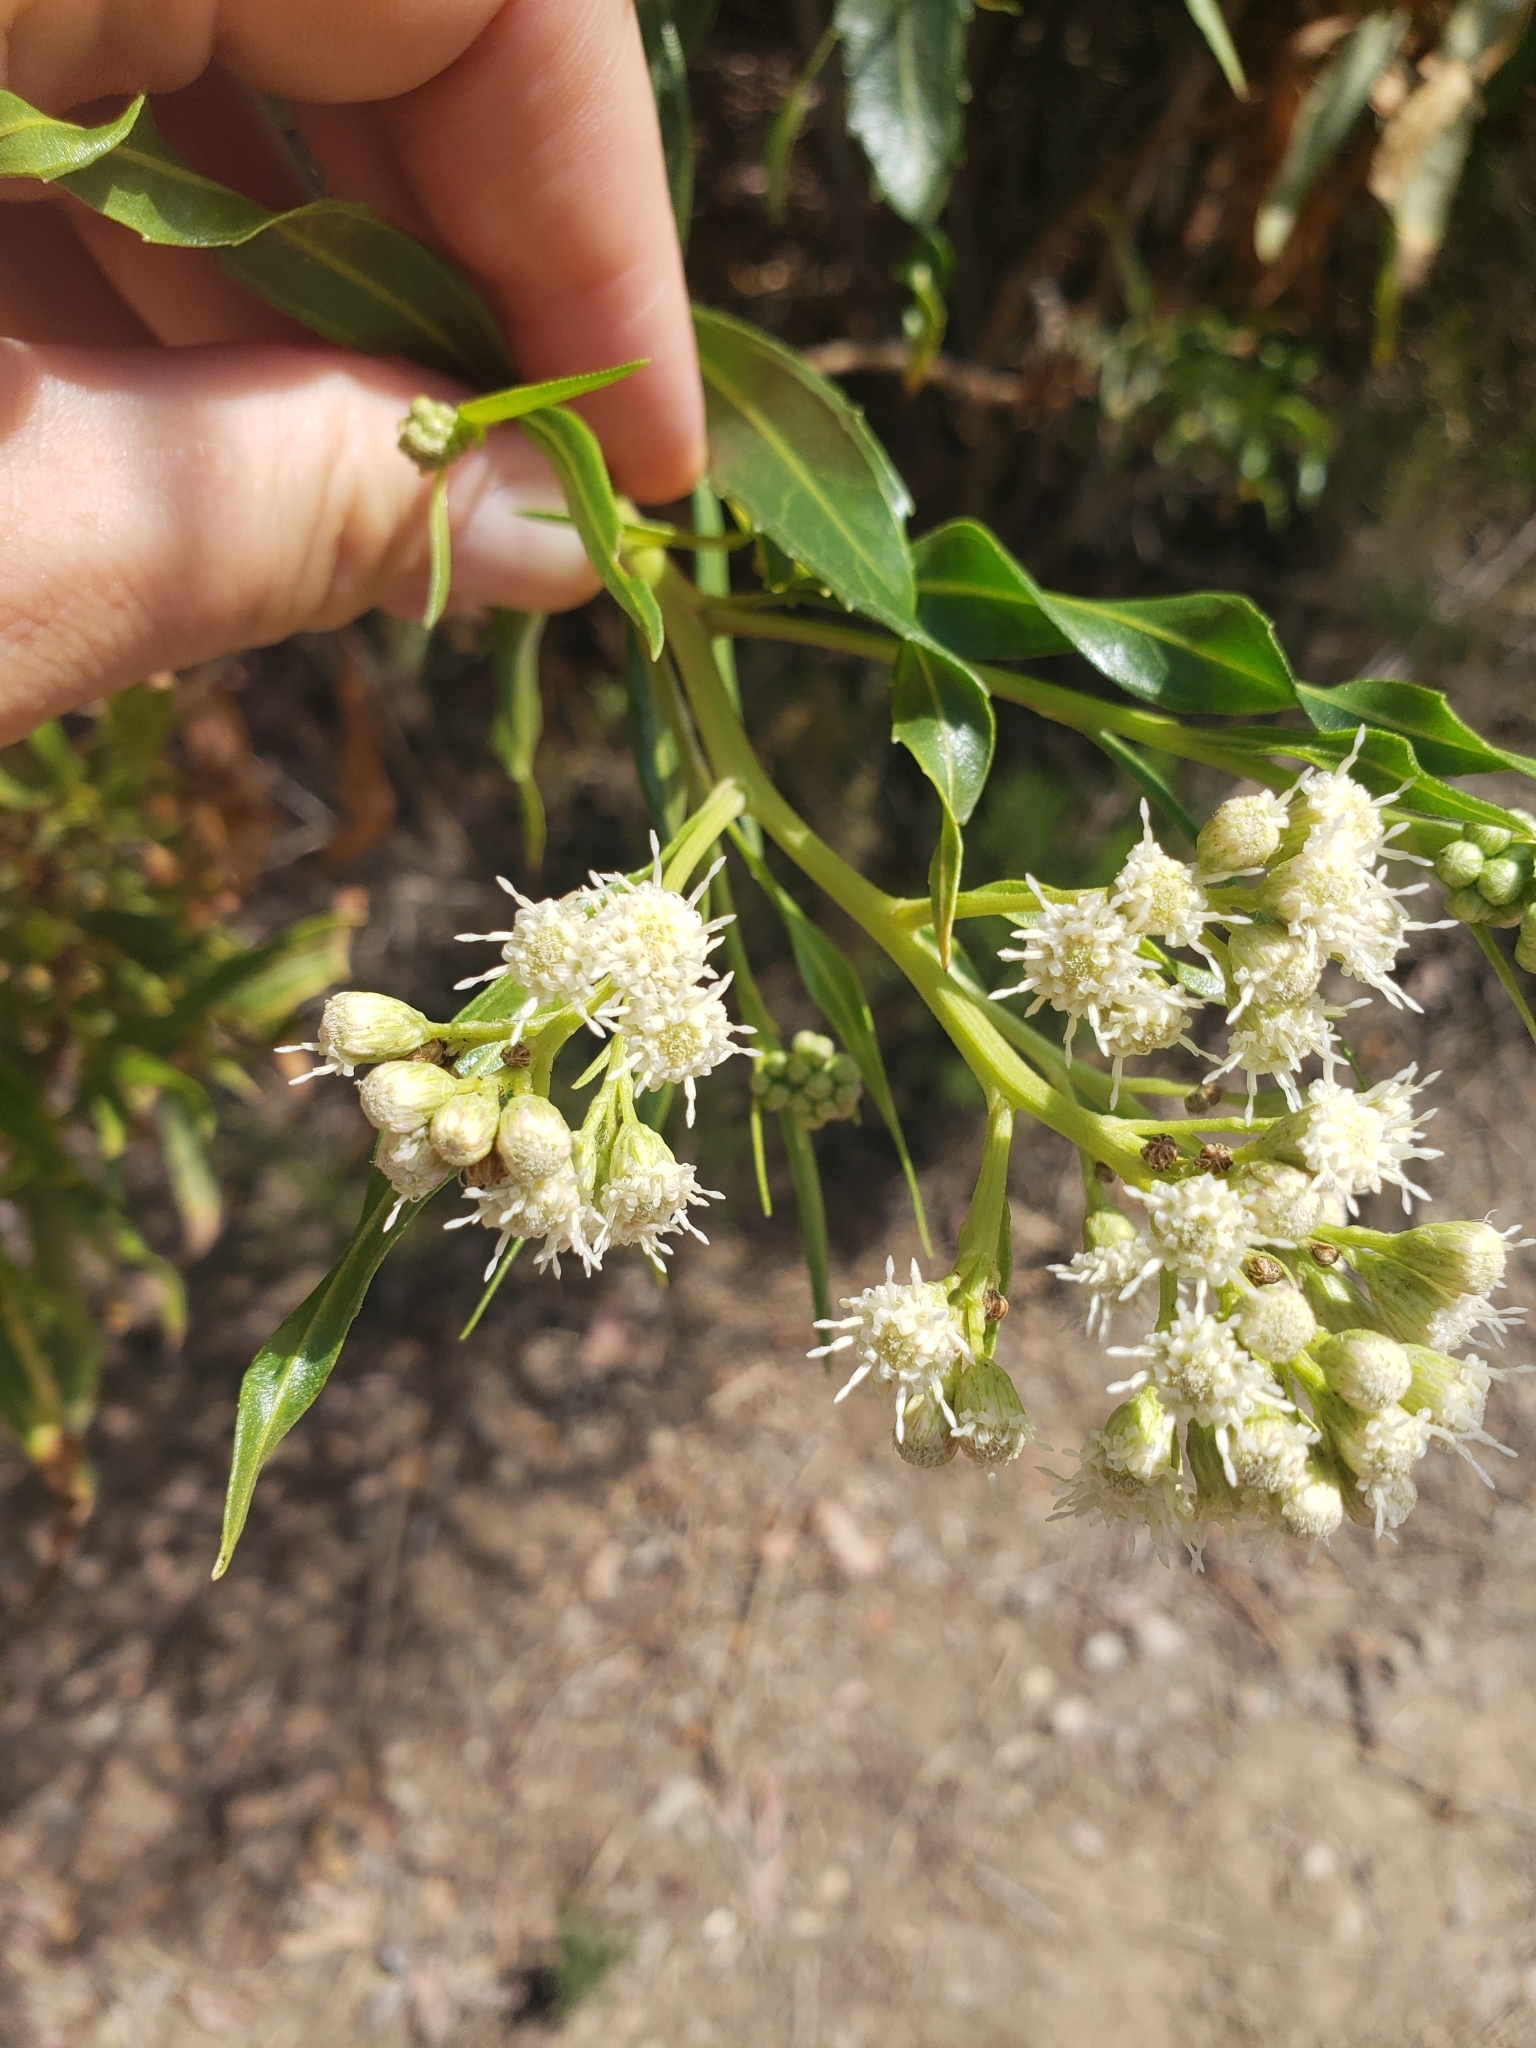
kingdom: Plantae
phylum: Tracheophyta
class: Magnoliopsida
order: Asterales
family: Asteraceae
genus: Baccharis
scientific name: Baccharis salicifolia
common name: Sticky baccharis
